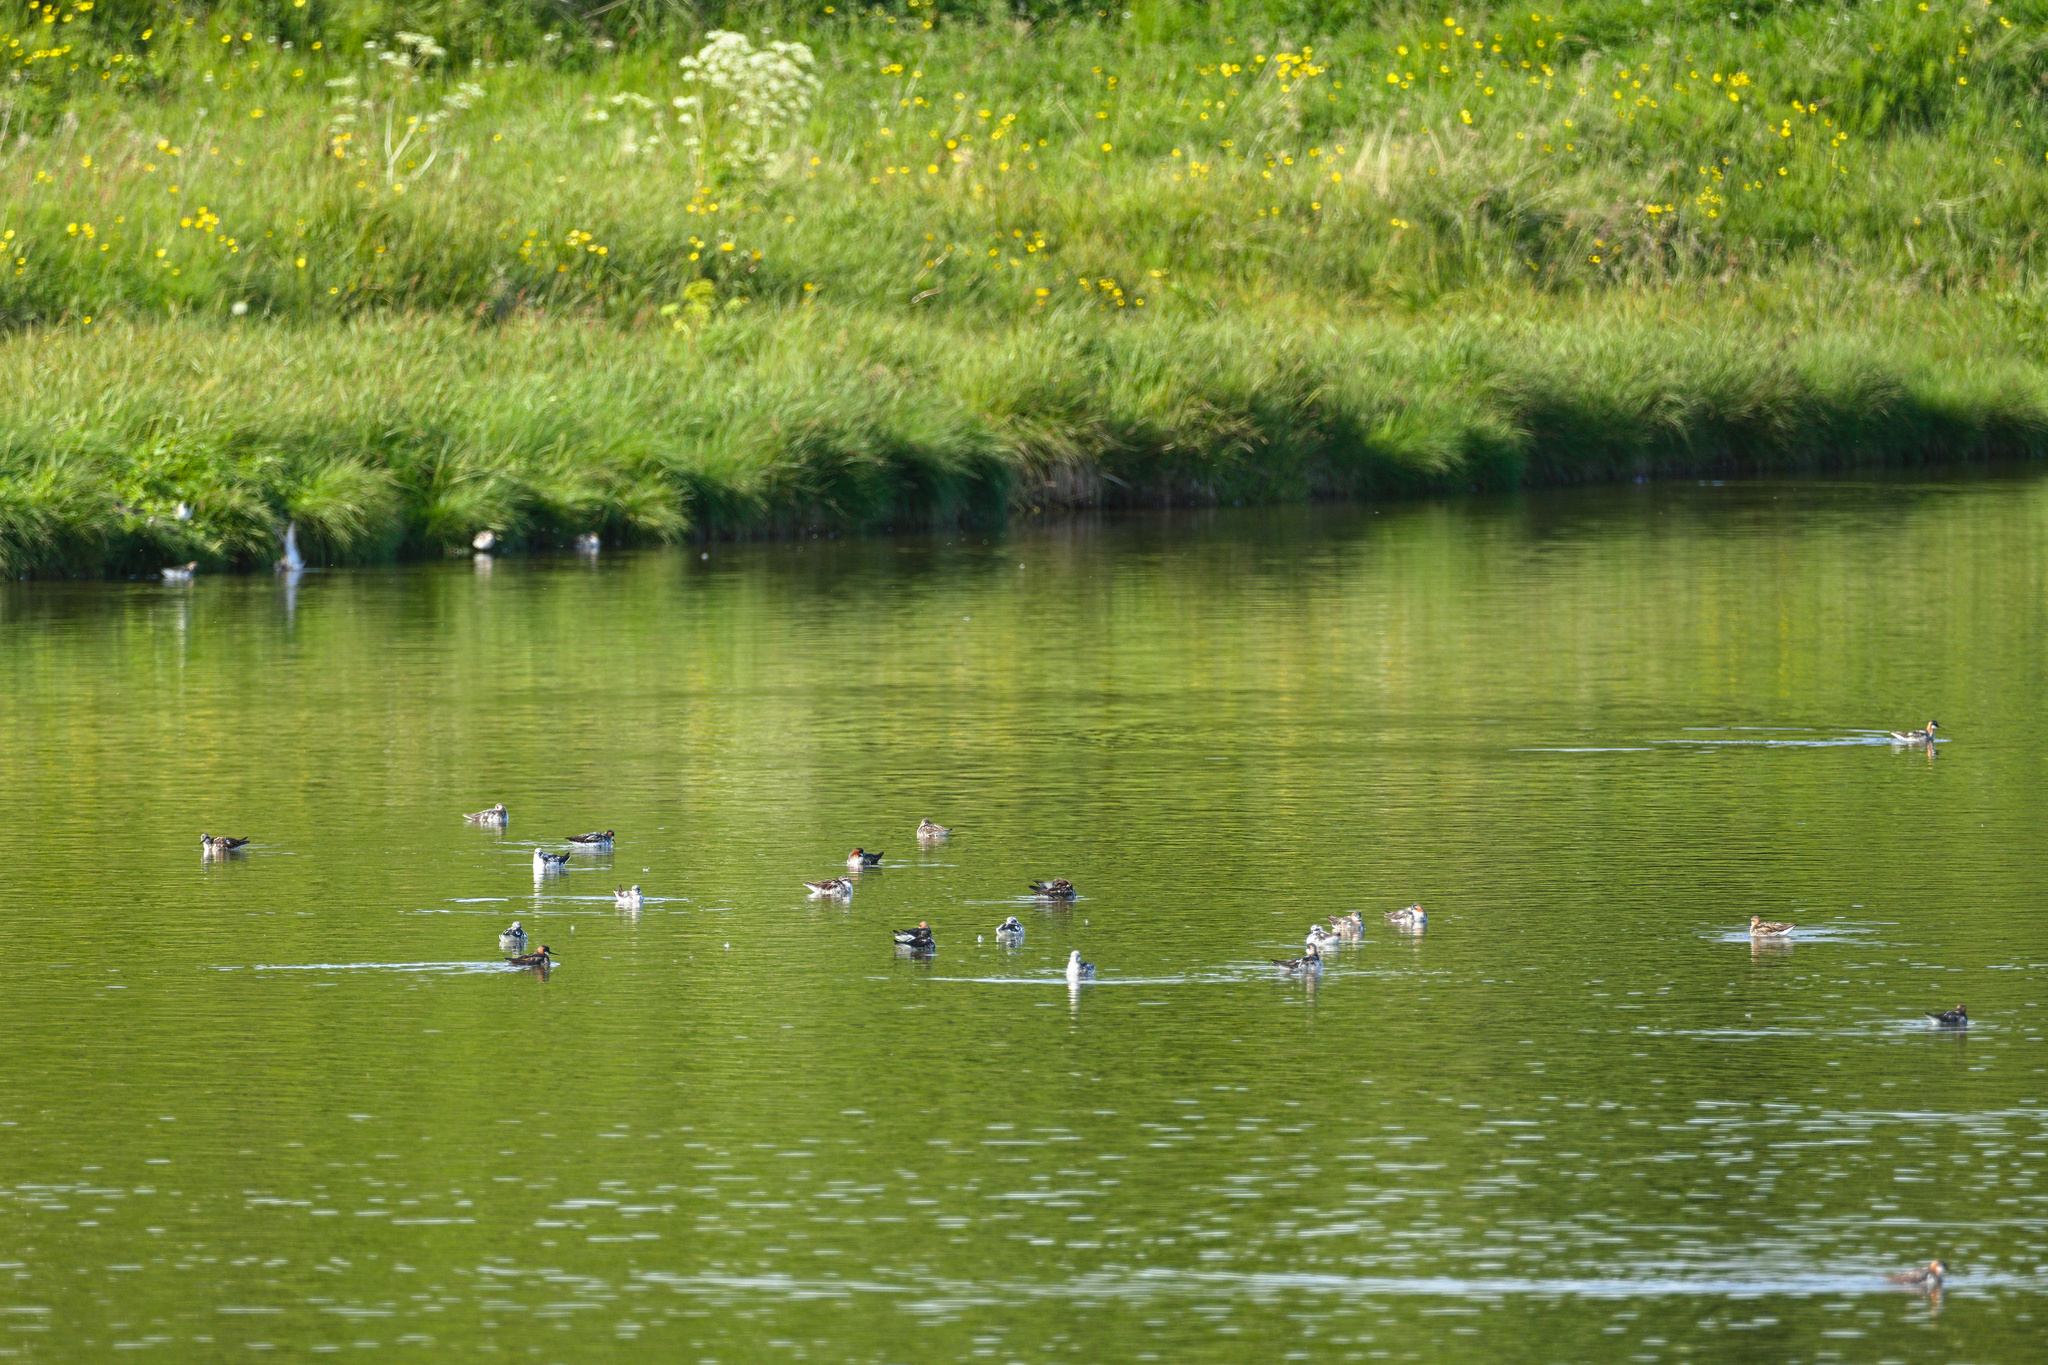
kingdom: Animalia
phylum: Chordata
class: Aves
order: Charadriiformes
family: Scolopacidae
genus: Phalaropus
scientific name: Phalaropus lobatus
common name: Red-necked phalarope
